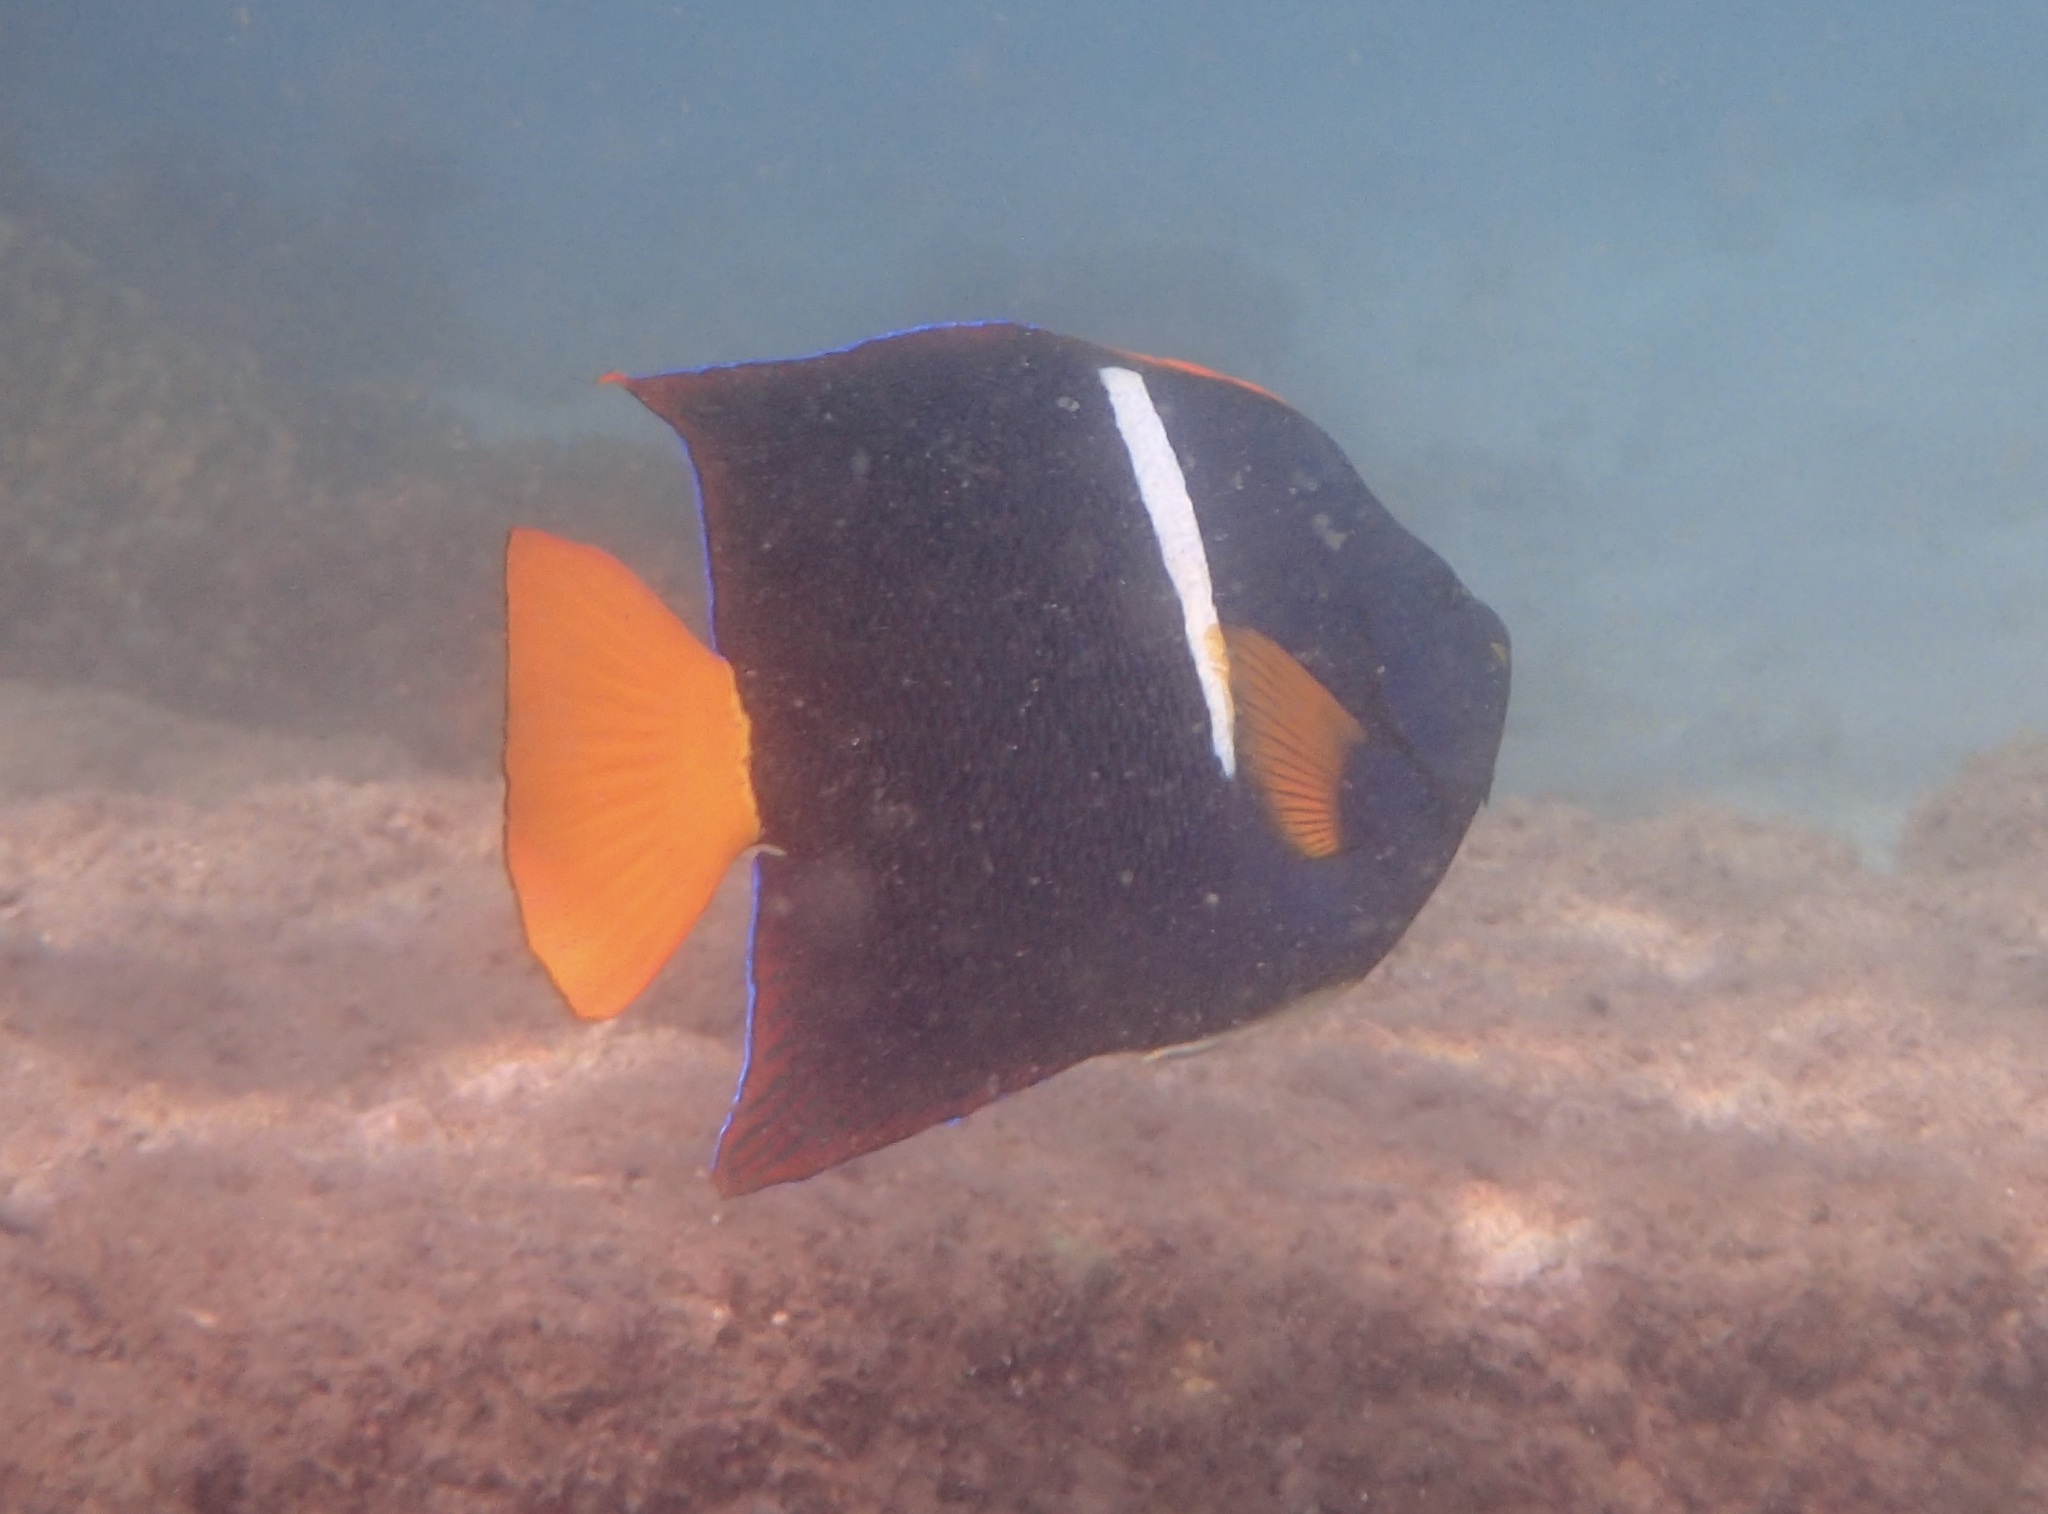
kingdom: Animalia
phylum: Chordata
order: Perciformes
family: Pomacanthidae
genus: Holacanthus
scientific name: Holacanthus passer
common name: King angelfish
